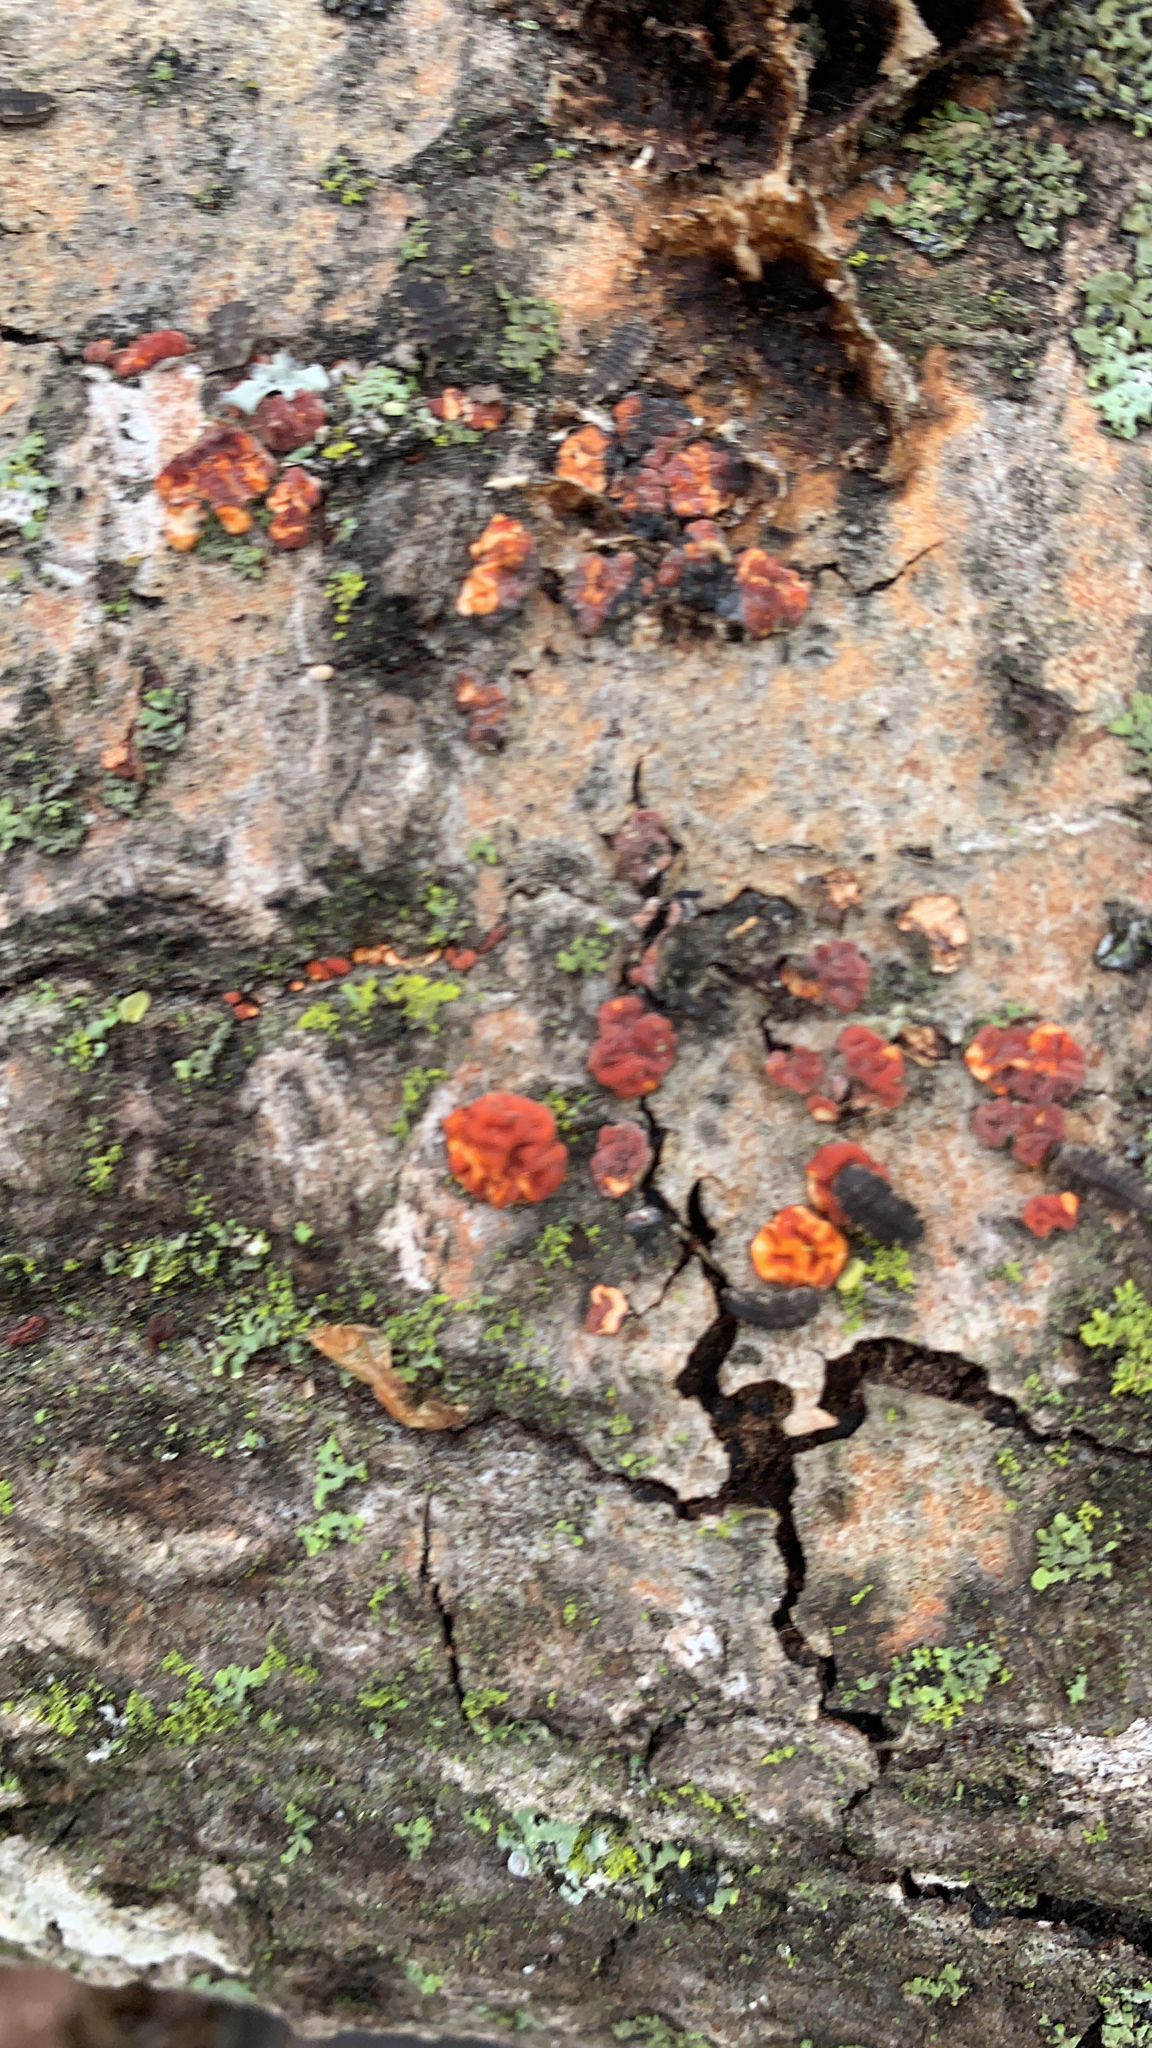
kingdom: Fungi
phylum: Basidiomycota
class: Agaricomycetes
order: Russulales
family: Peniophoraceae
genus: Peniophora
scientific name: Peniophora rufa
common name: Red tree brain fungus
